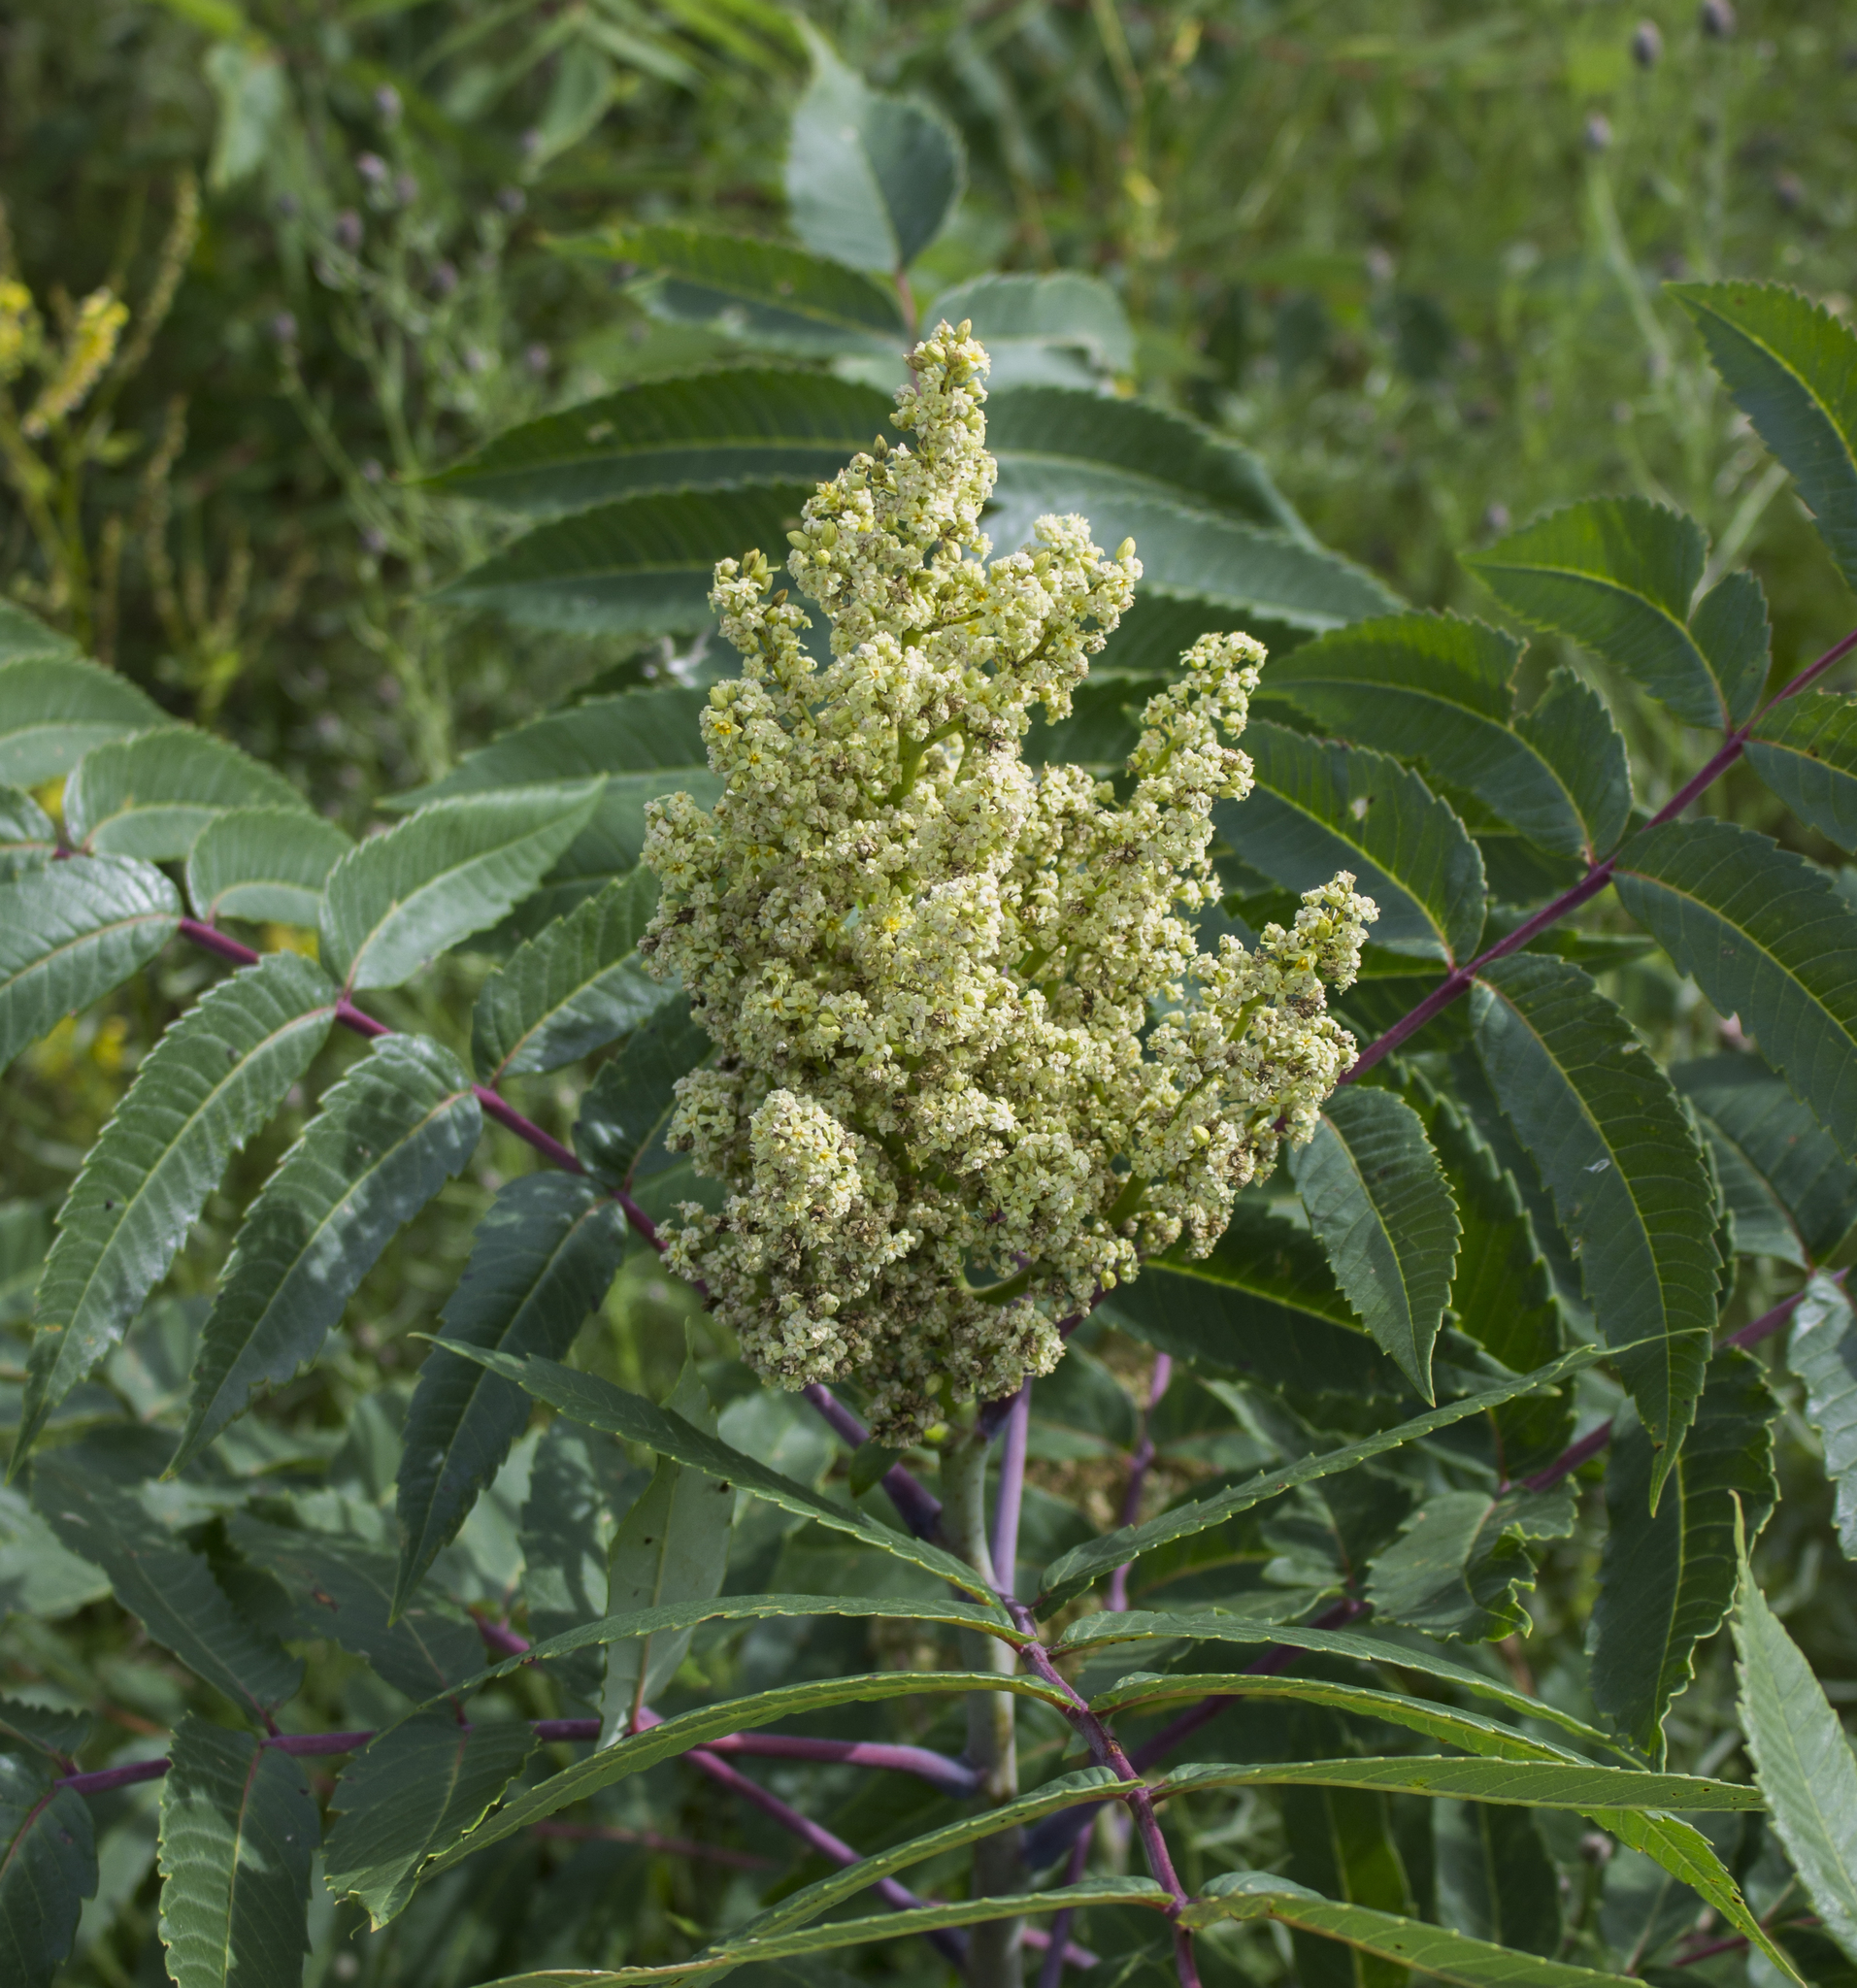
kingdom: Plantae
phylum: Tracheophyta
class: Magnoliopsida
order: Sapindales
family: Anacardiaceae
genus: Rhus
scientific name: Rhus glabra
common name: Scarlet sumac
